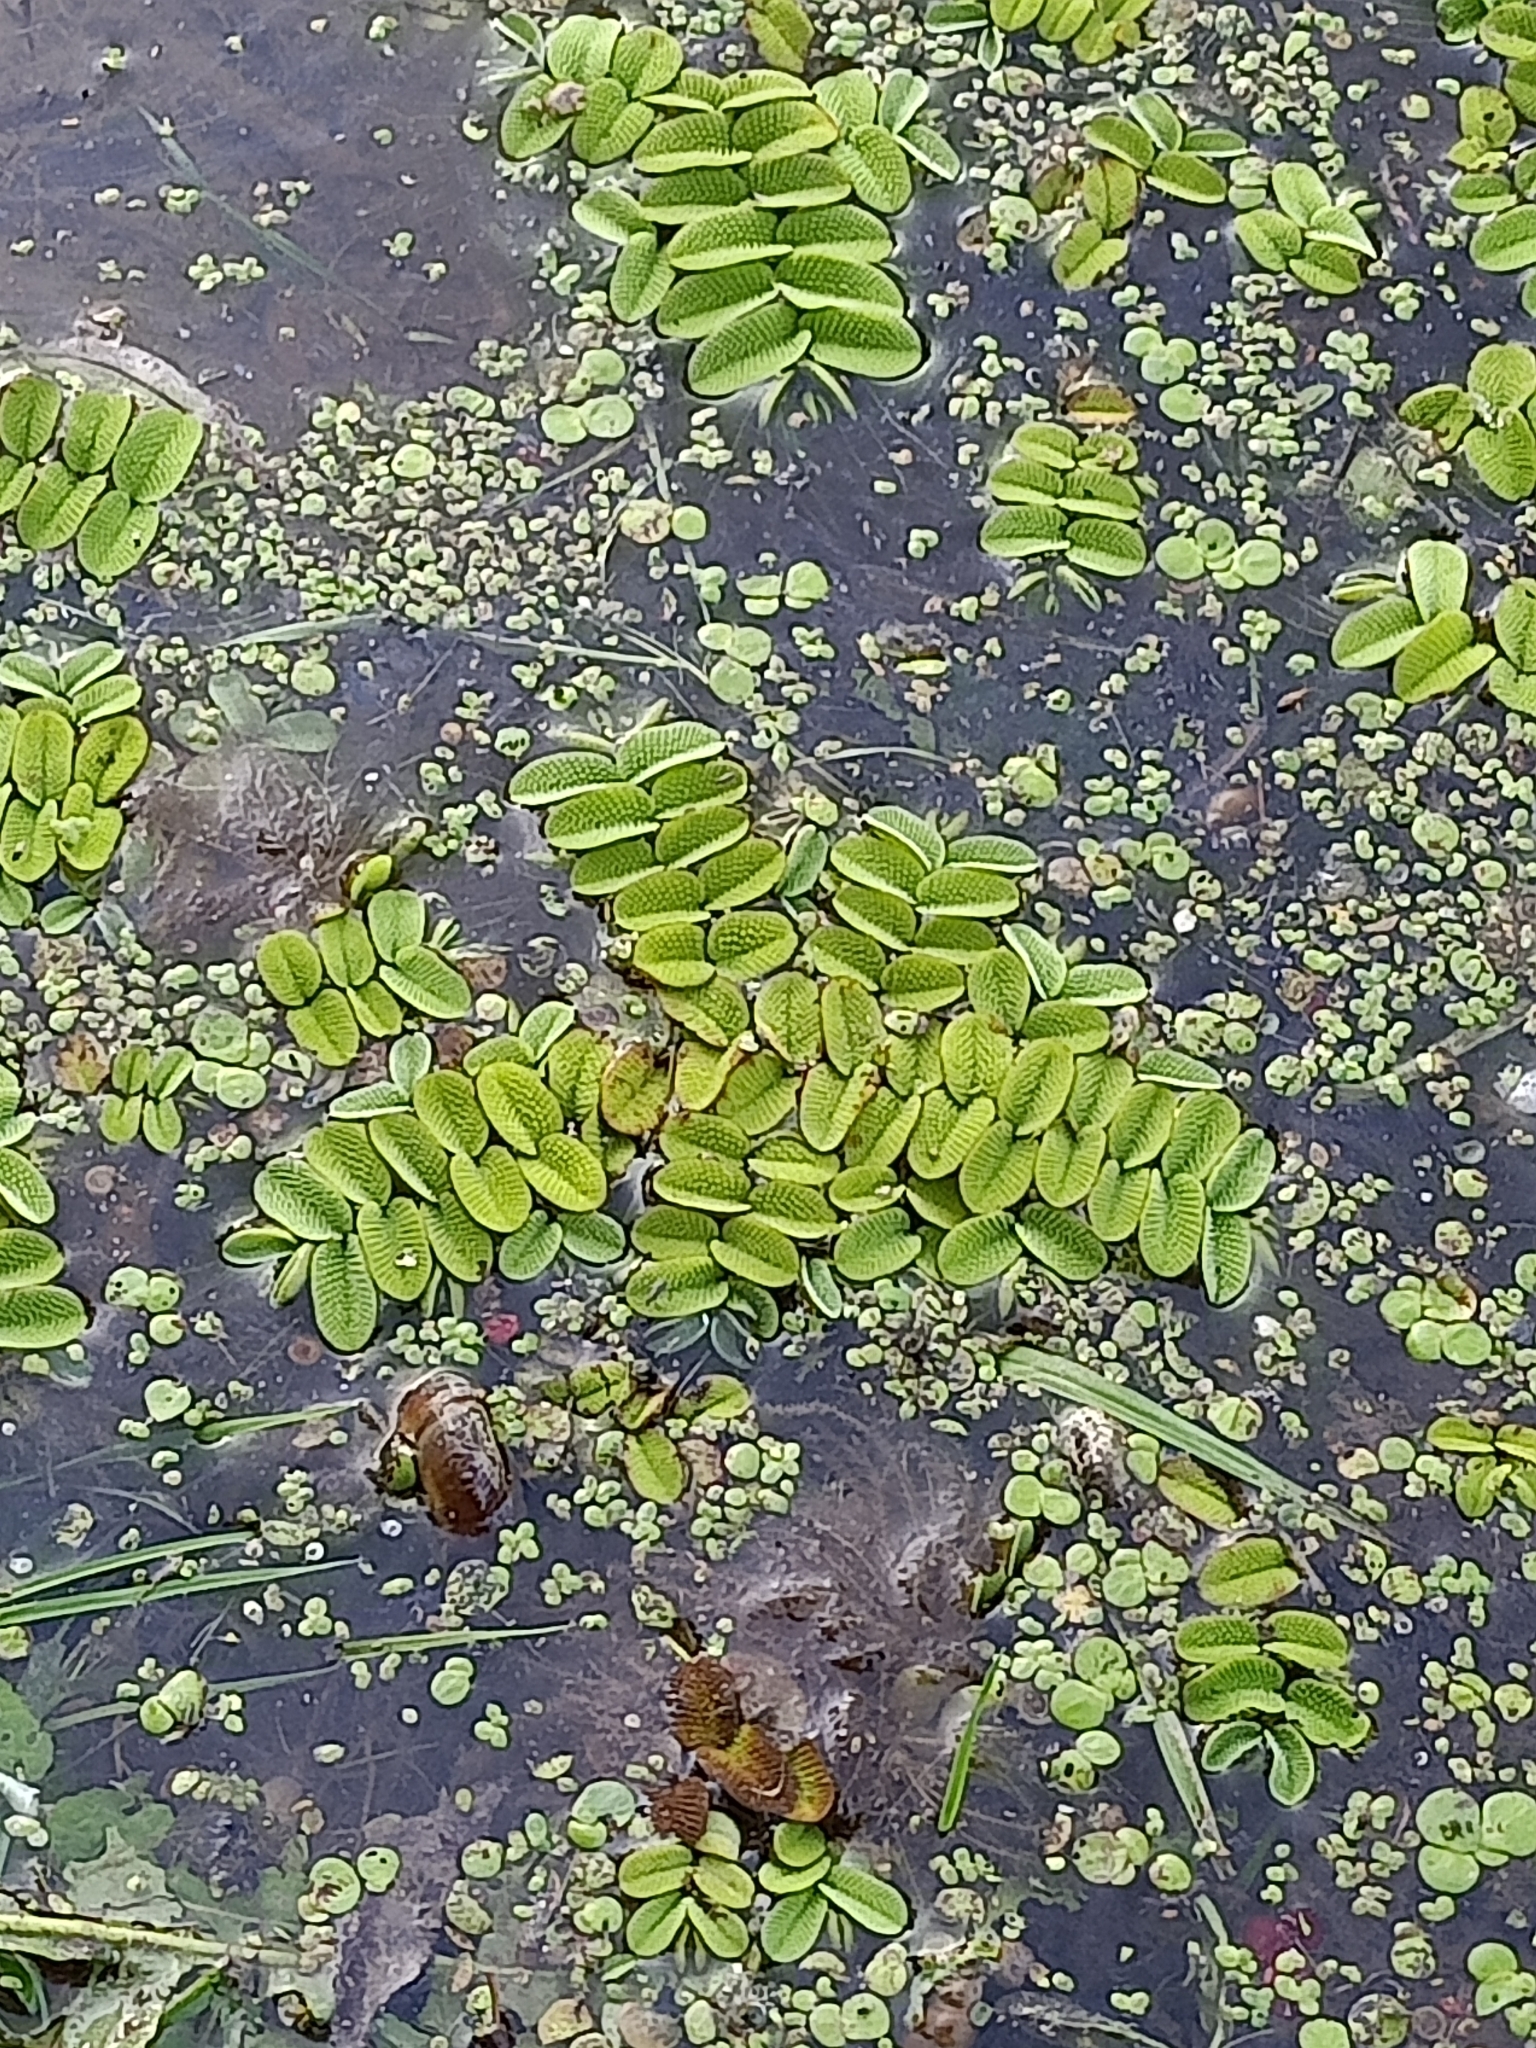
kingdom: Plantae
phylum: Tracheophyta
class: Polypodiopsida
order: Salviniales
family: Salviniaceae
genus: Salvinia
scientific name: Salvinia natans
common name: Floating fern
